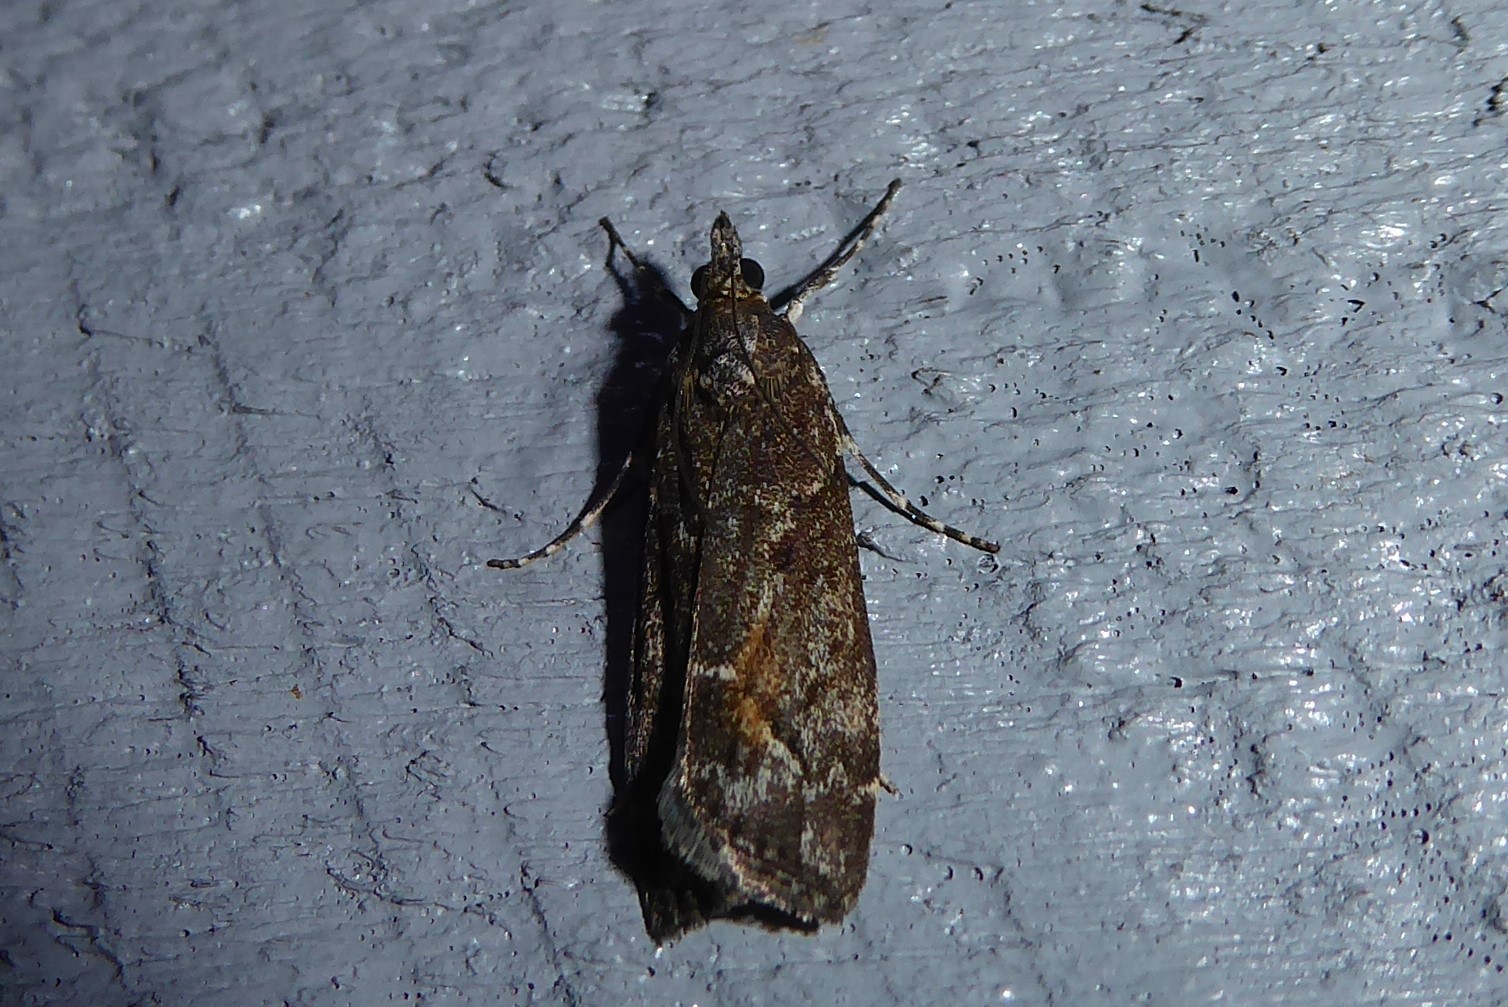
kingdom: Animalia
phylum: Arthropoda
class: Insecta
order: Lepidoptera
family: Crambidae
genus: Eudonia
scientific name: Eudonia submarginalis
